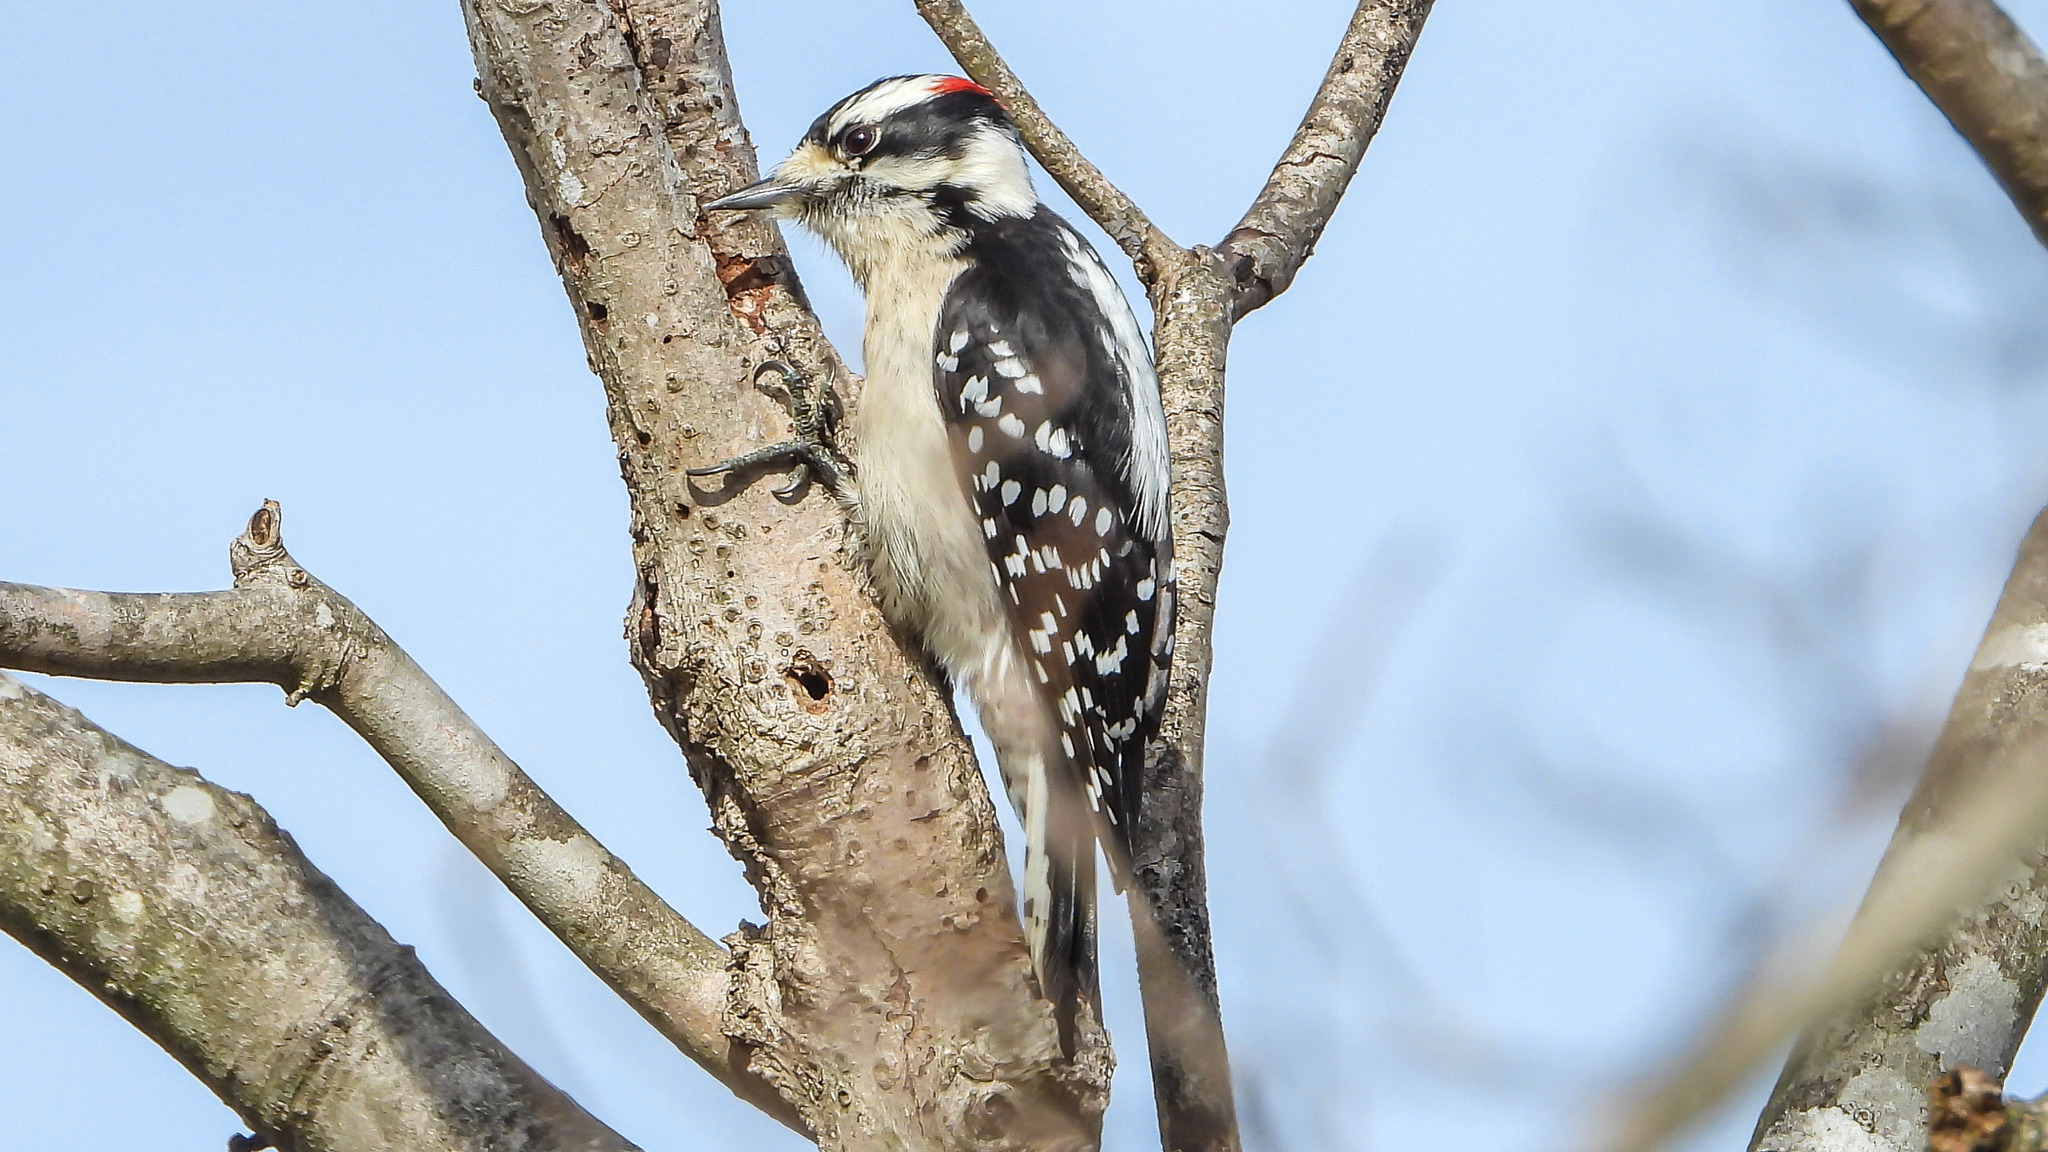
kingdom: Animalia
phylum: Chordata
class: Aves
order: Piciformes
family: Picidae
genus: Dryobates
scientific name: Dryobates pubescens
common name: Downy woodpecker
